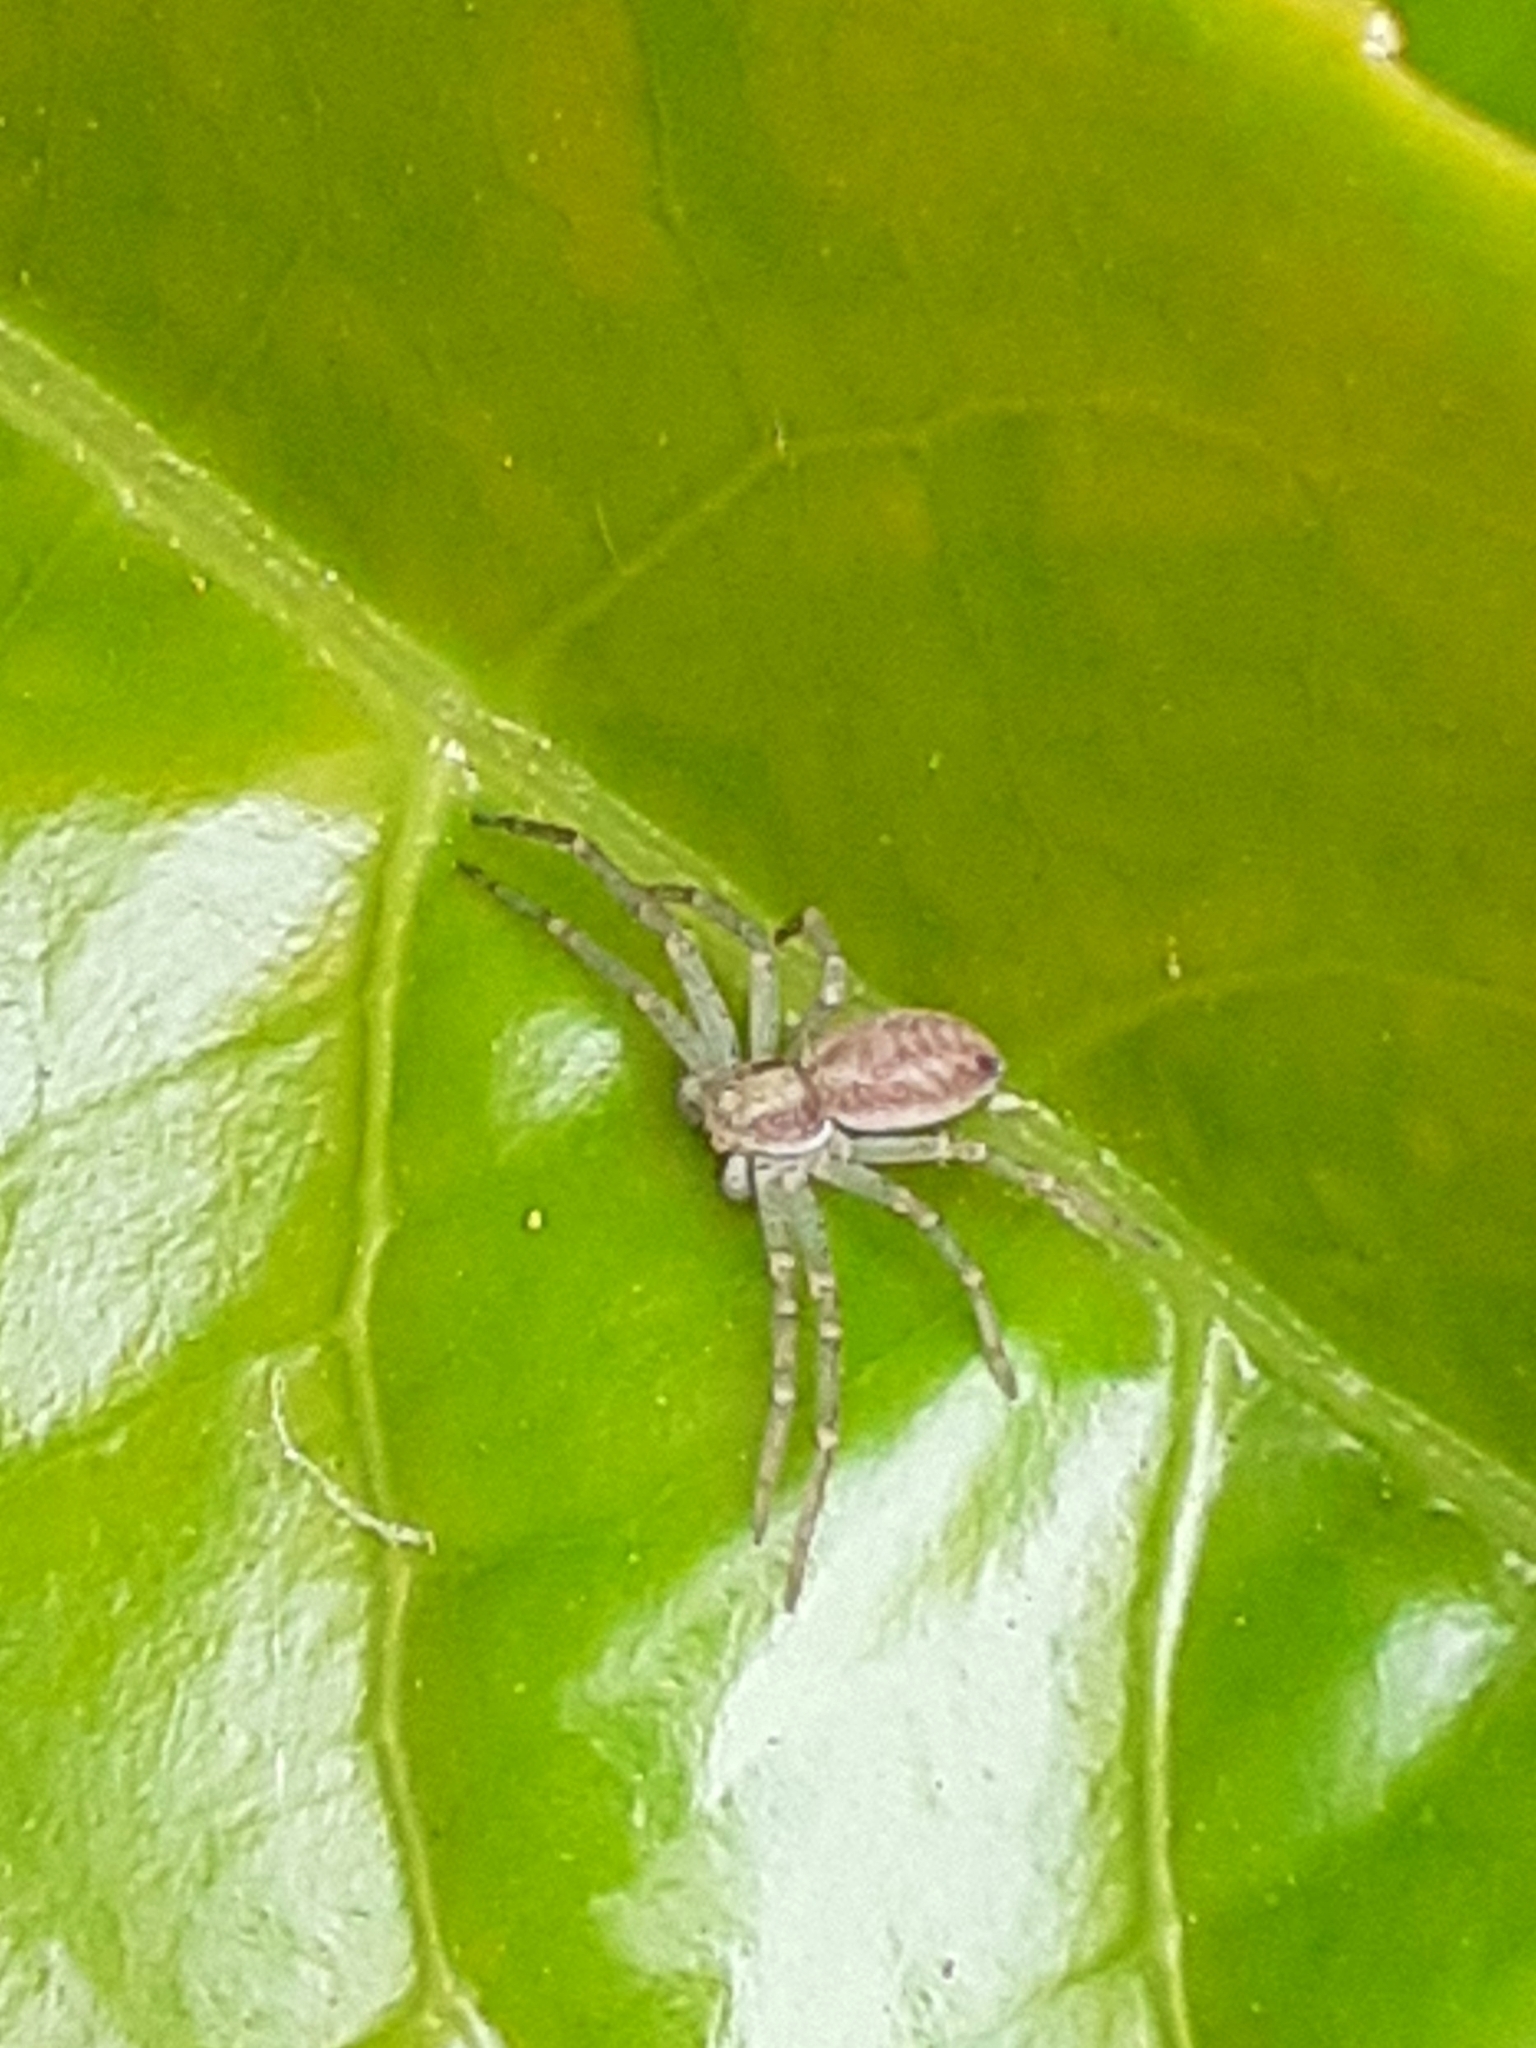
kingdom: Animalia
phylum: Arthropoda
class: Arachnida
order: Araneae
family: Philodromidae
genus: Philodromus
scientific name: Philodromus dispar
